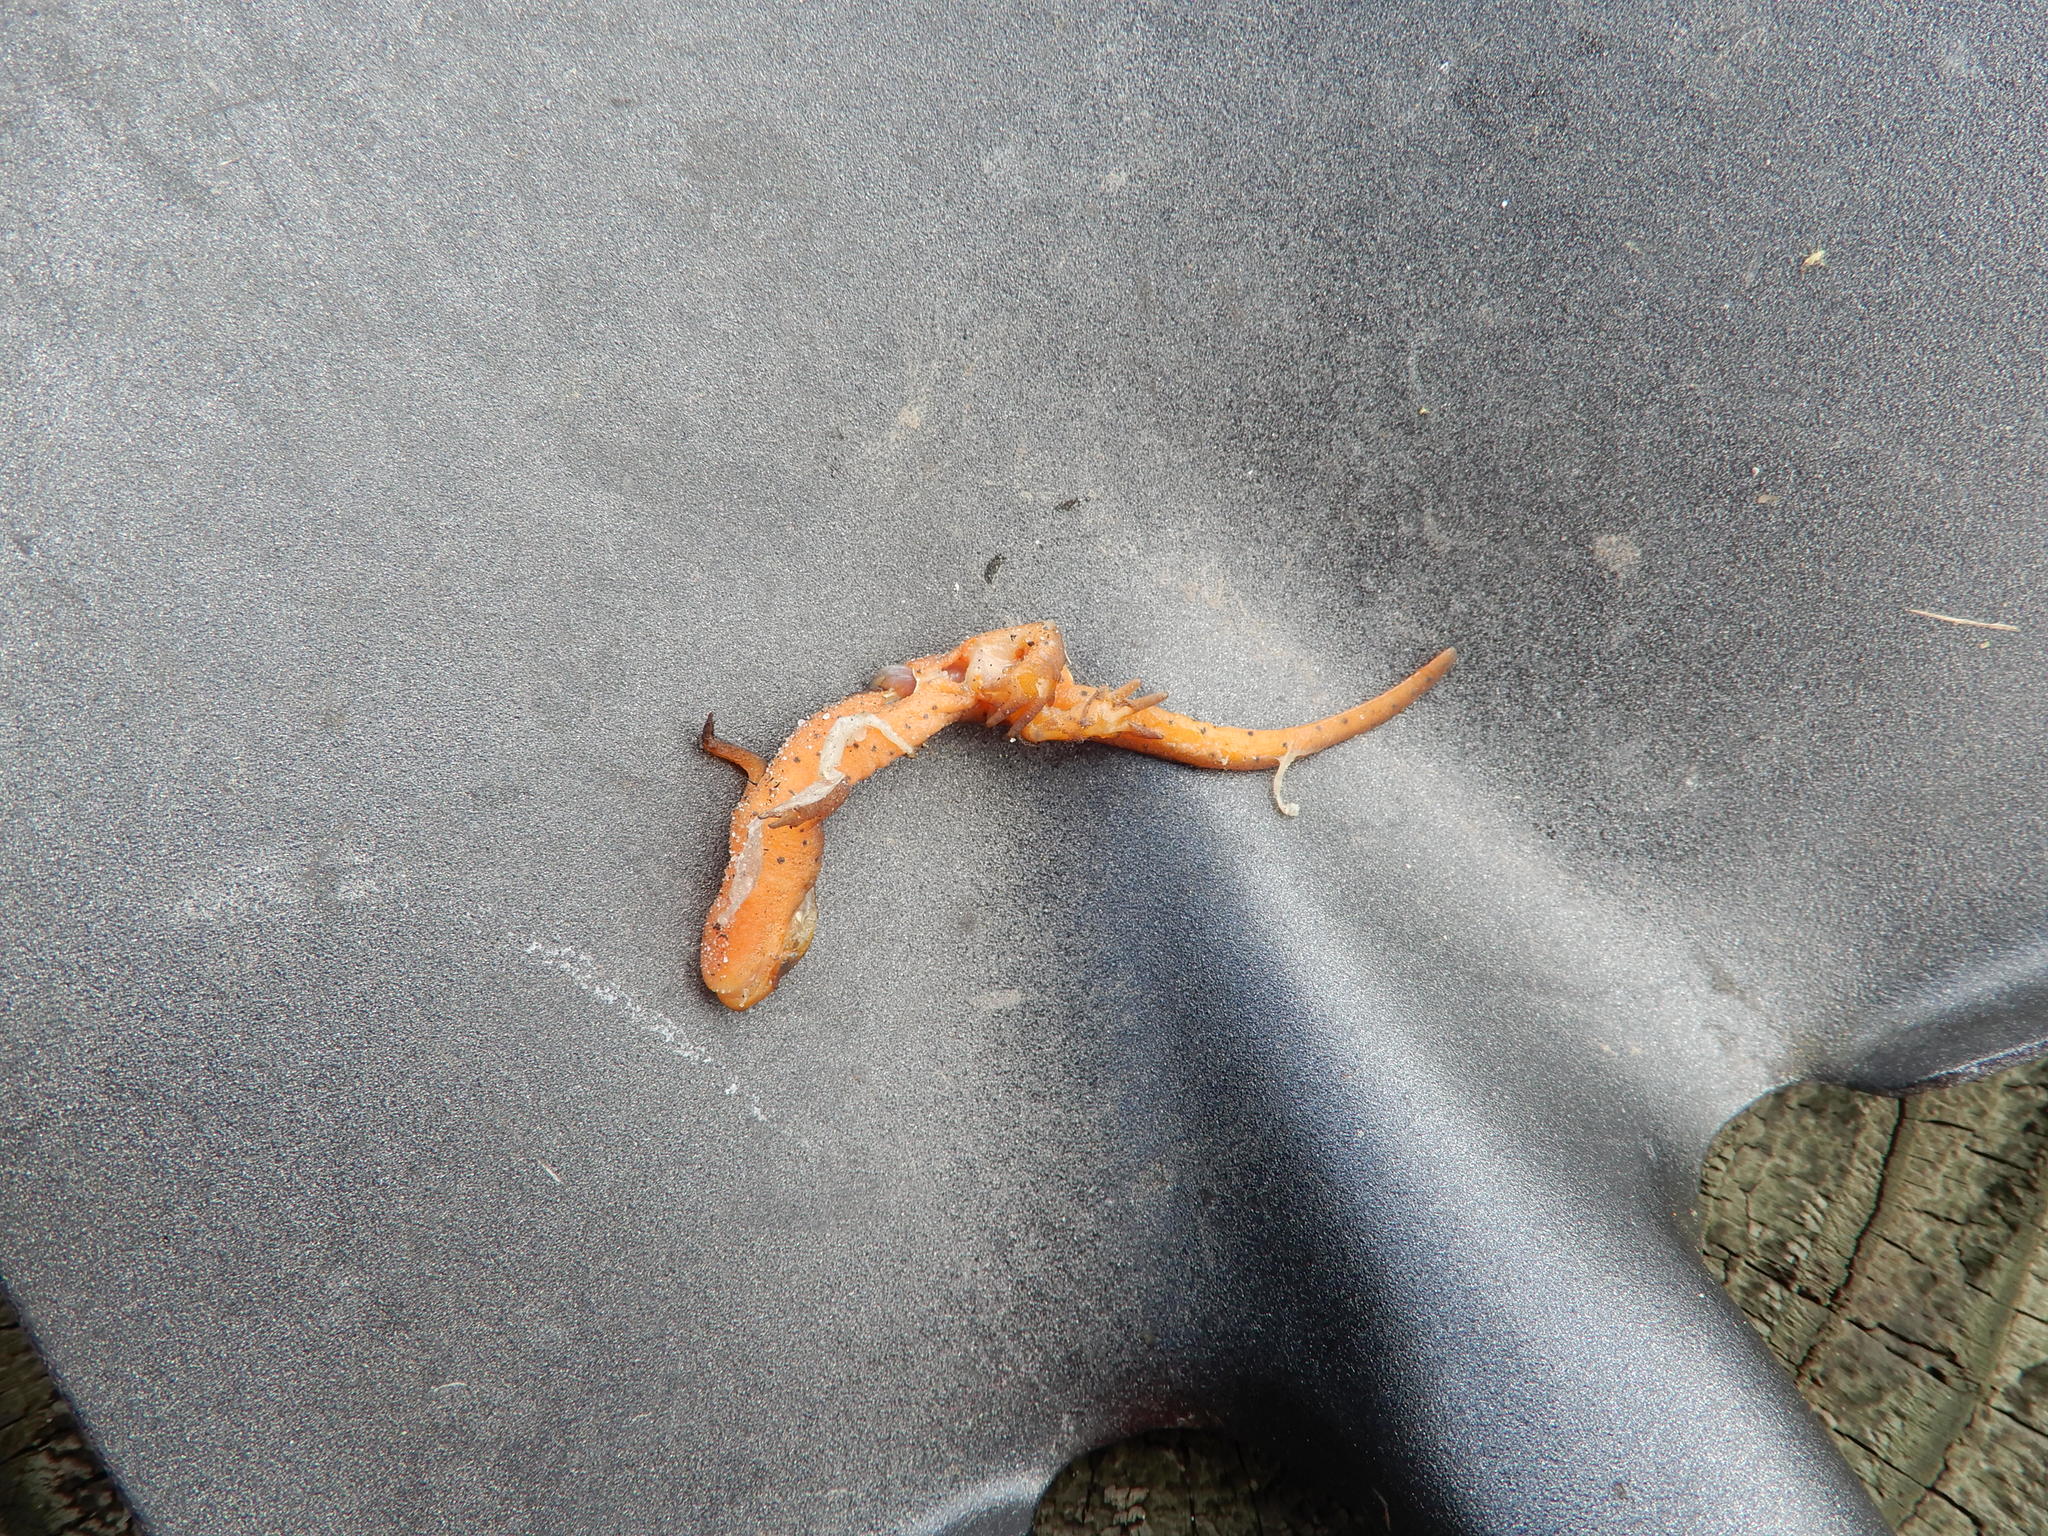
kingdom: Animalia
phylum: Chordata
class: Amphibia
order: Caudata
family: Salamandridae
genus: Notophthalmus
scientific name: Notophthalmus viridescens
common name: Eastern newt
